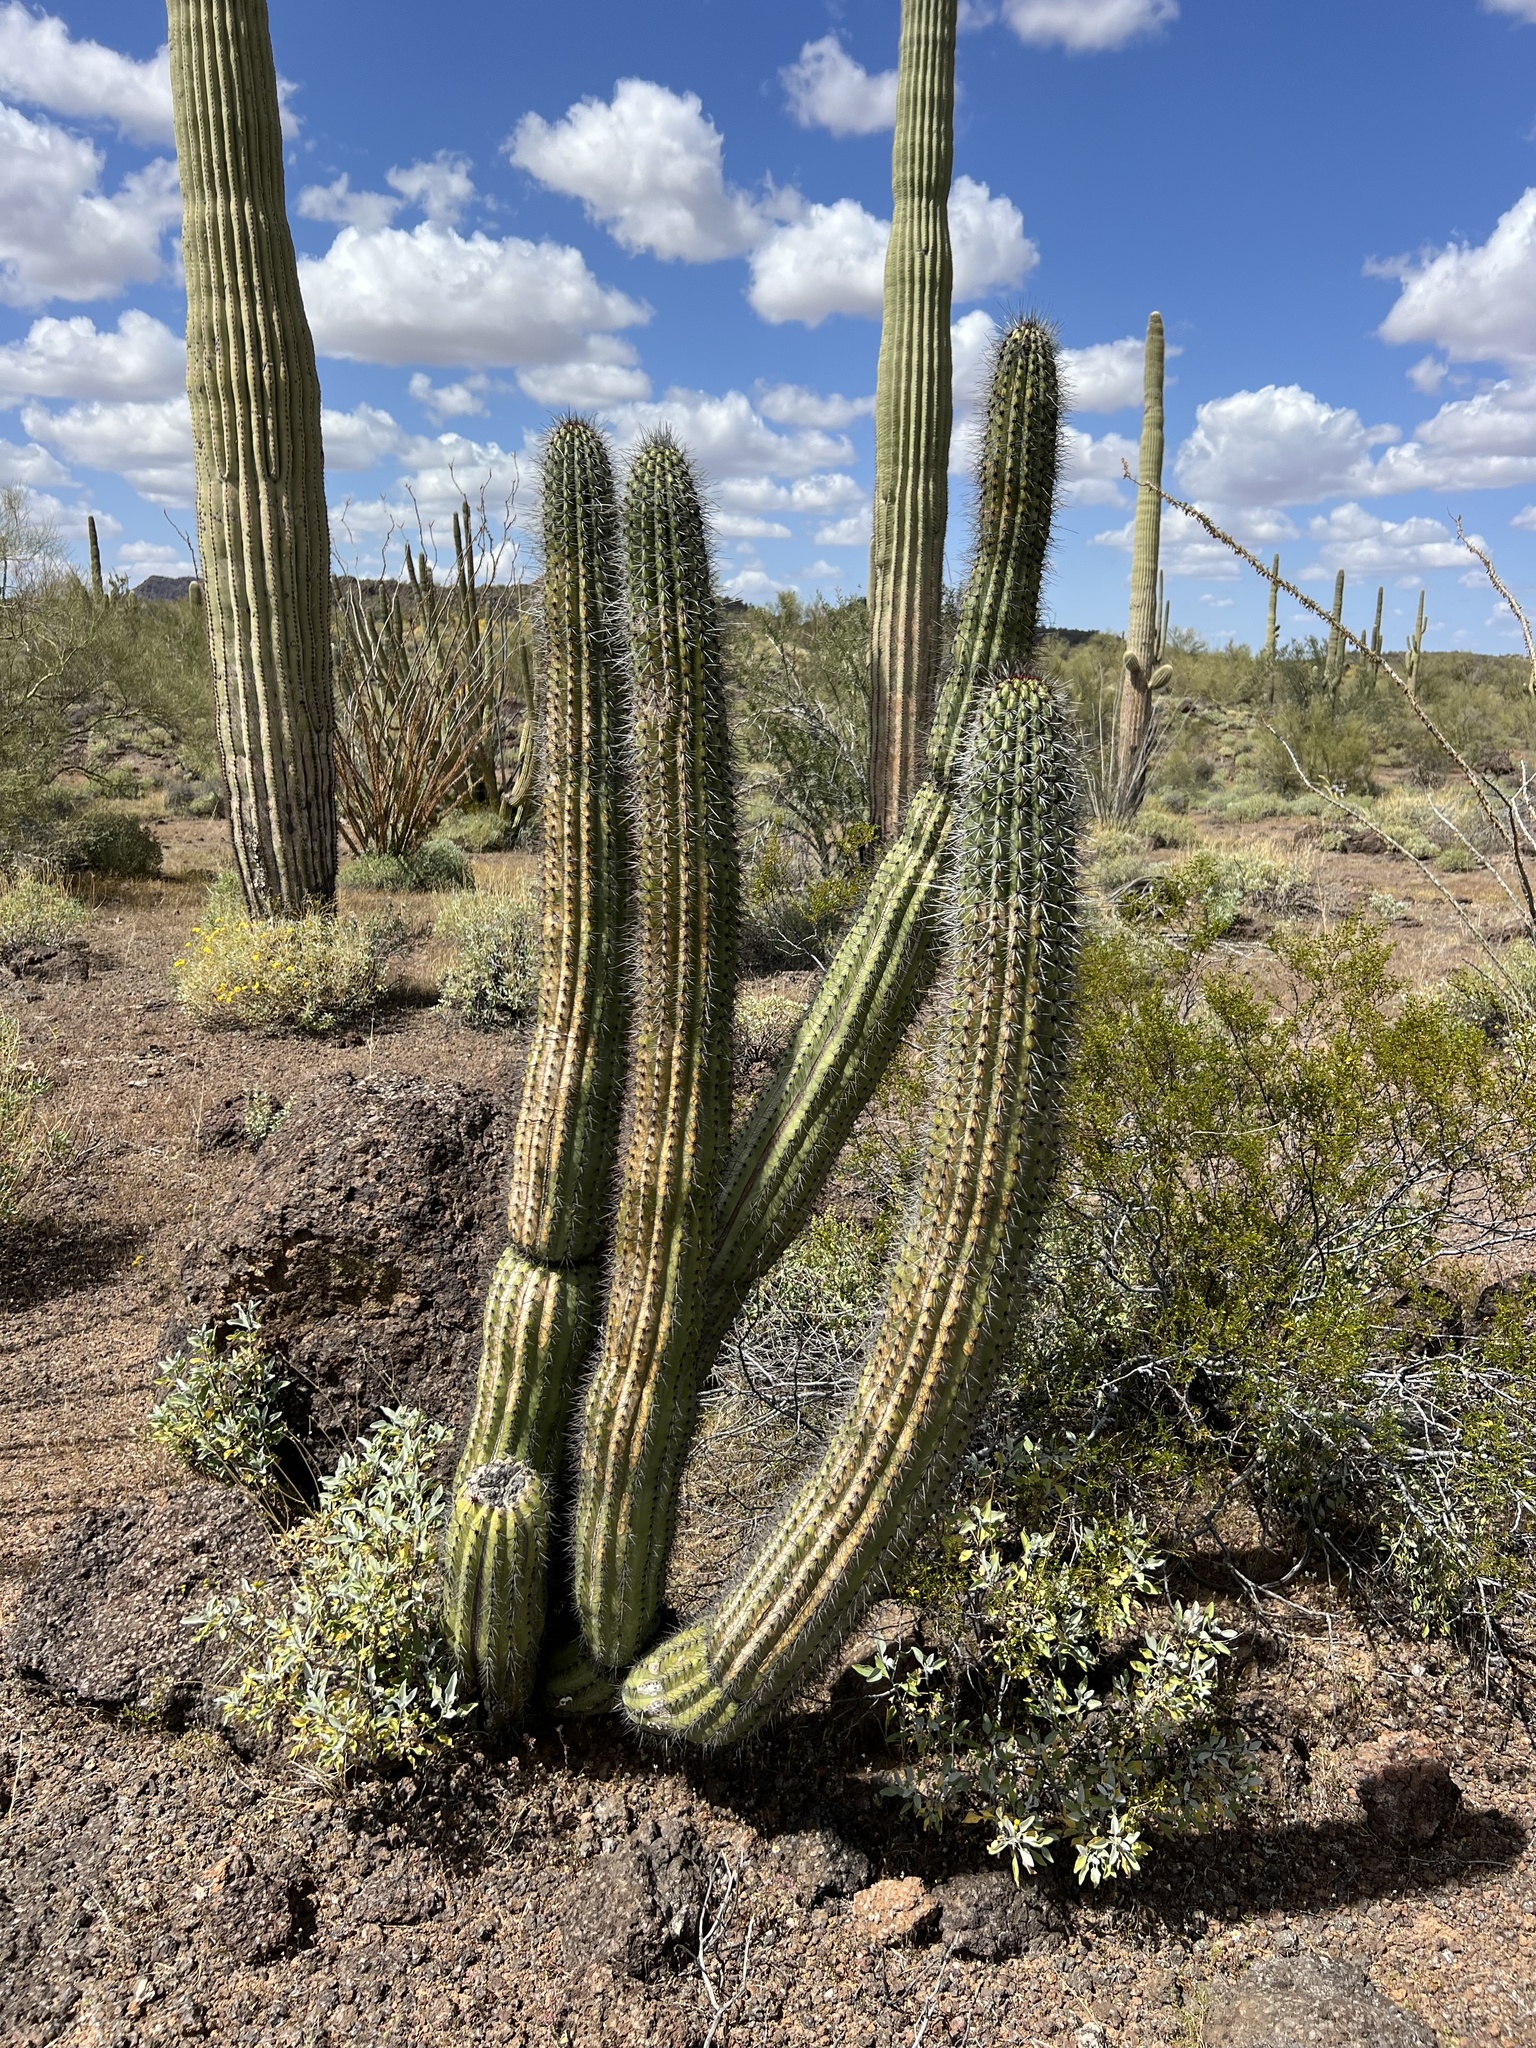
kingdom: Plantae
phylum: Tracheophyta
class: Magnoliopsida
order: Caryophyllales
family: Cactaceae
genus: Stenocereus
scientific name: Stenocereus thurberi
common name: Organ pipe cactus
